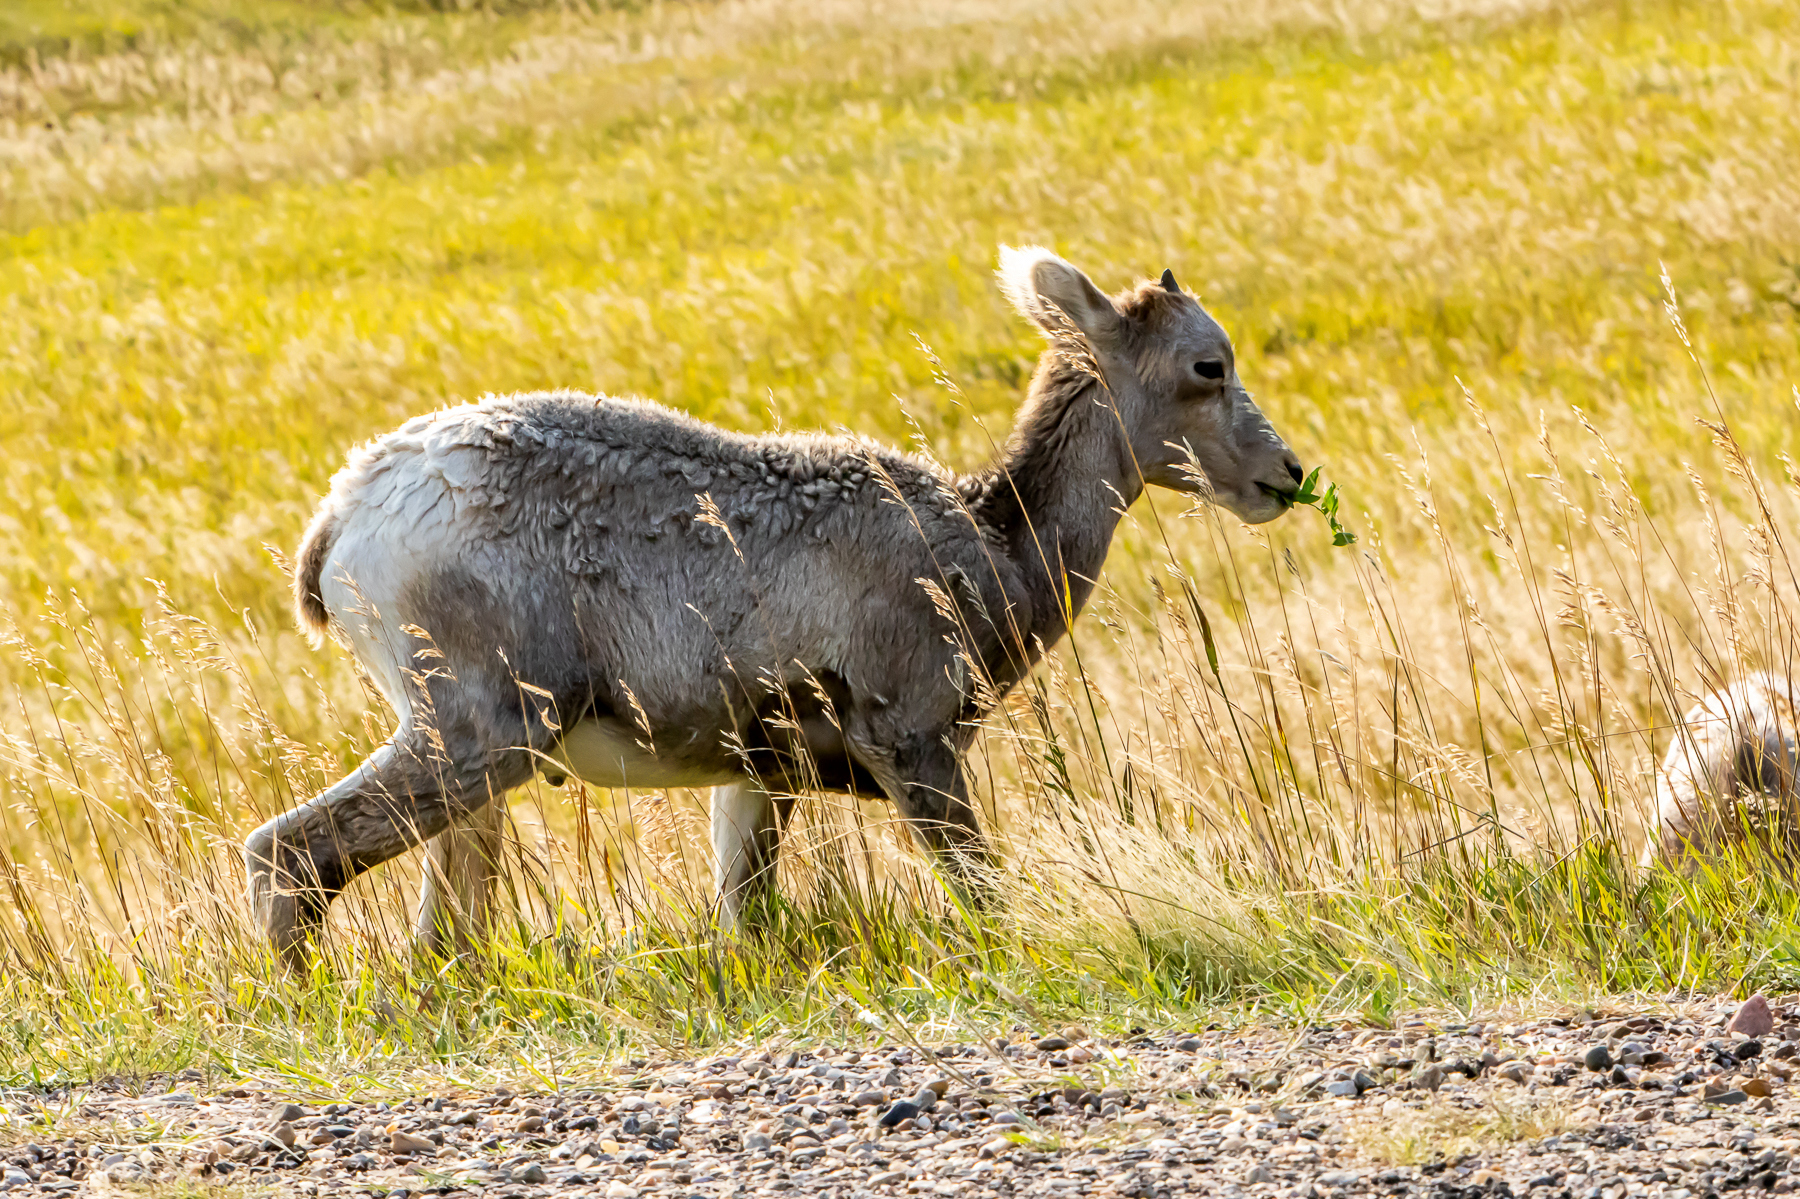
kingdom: Animalia
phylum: Chordata
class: Mammalia
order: Artiodactyla
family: Bovidae
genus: Ovis
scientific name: Ovis canadensis
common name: Bighorn sheep
